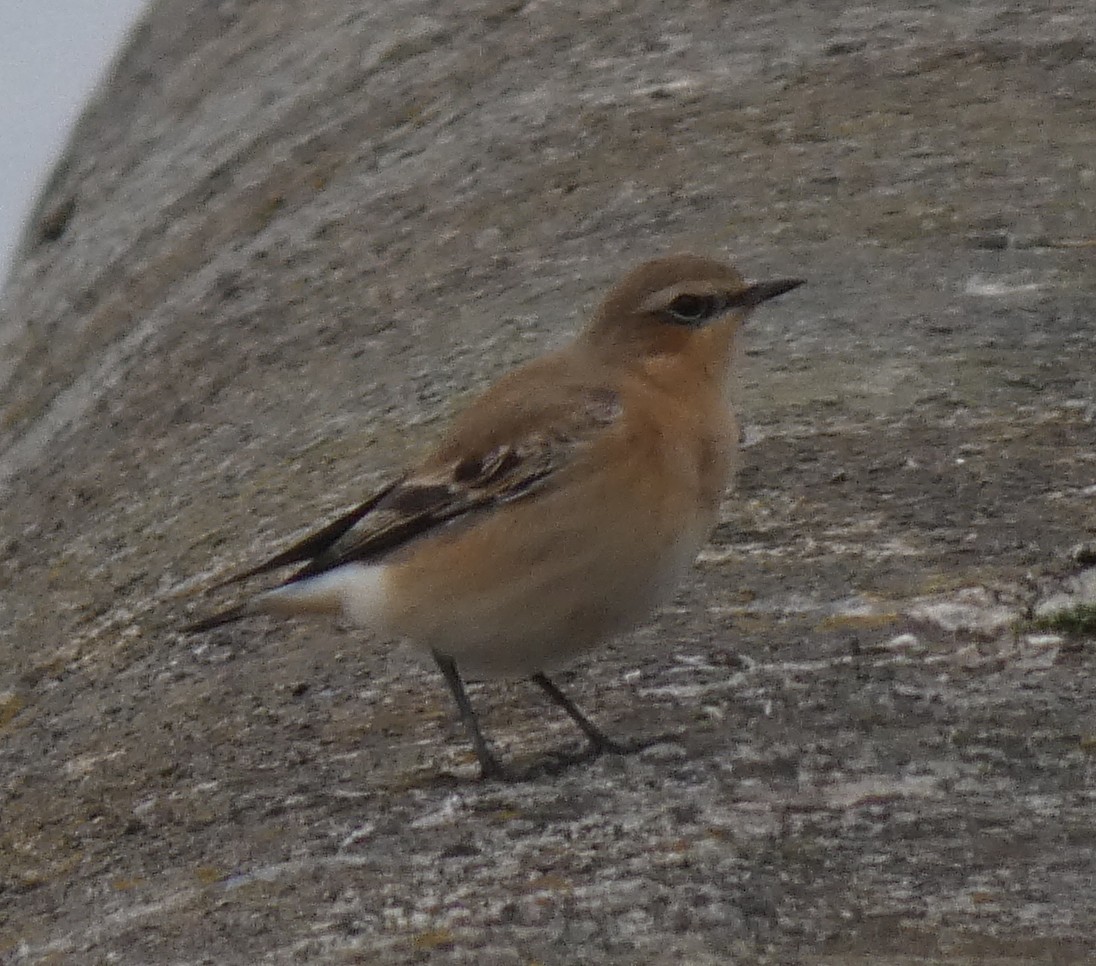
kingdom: Animalia
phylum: Chordata
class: Aves
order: Passeriformes
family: Muscicapidae
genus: Oenanthe
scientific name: Oenanthe oenanthe
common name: Northern wheatear
